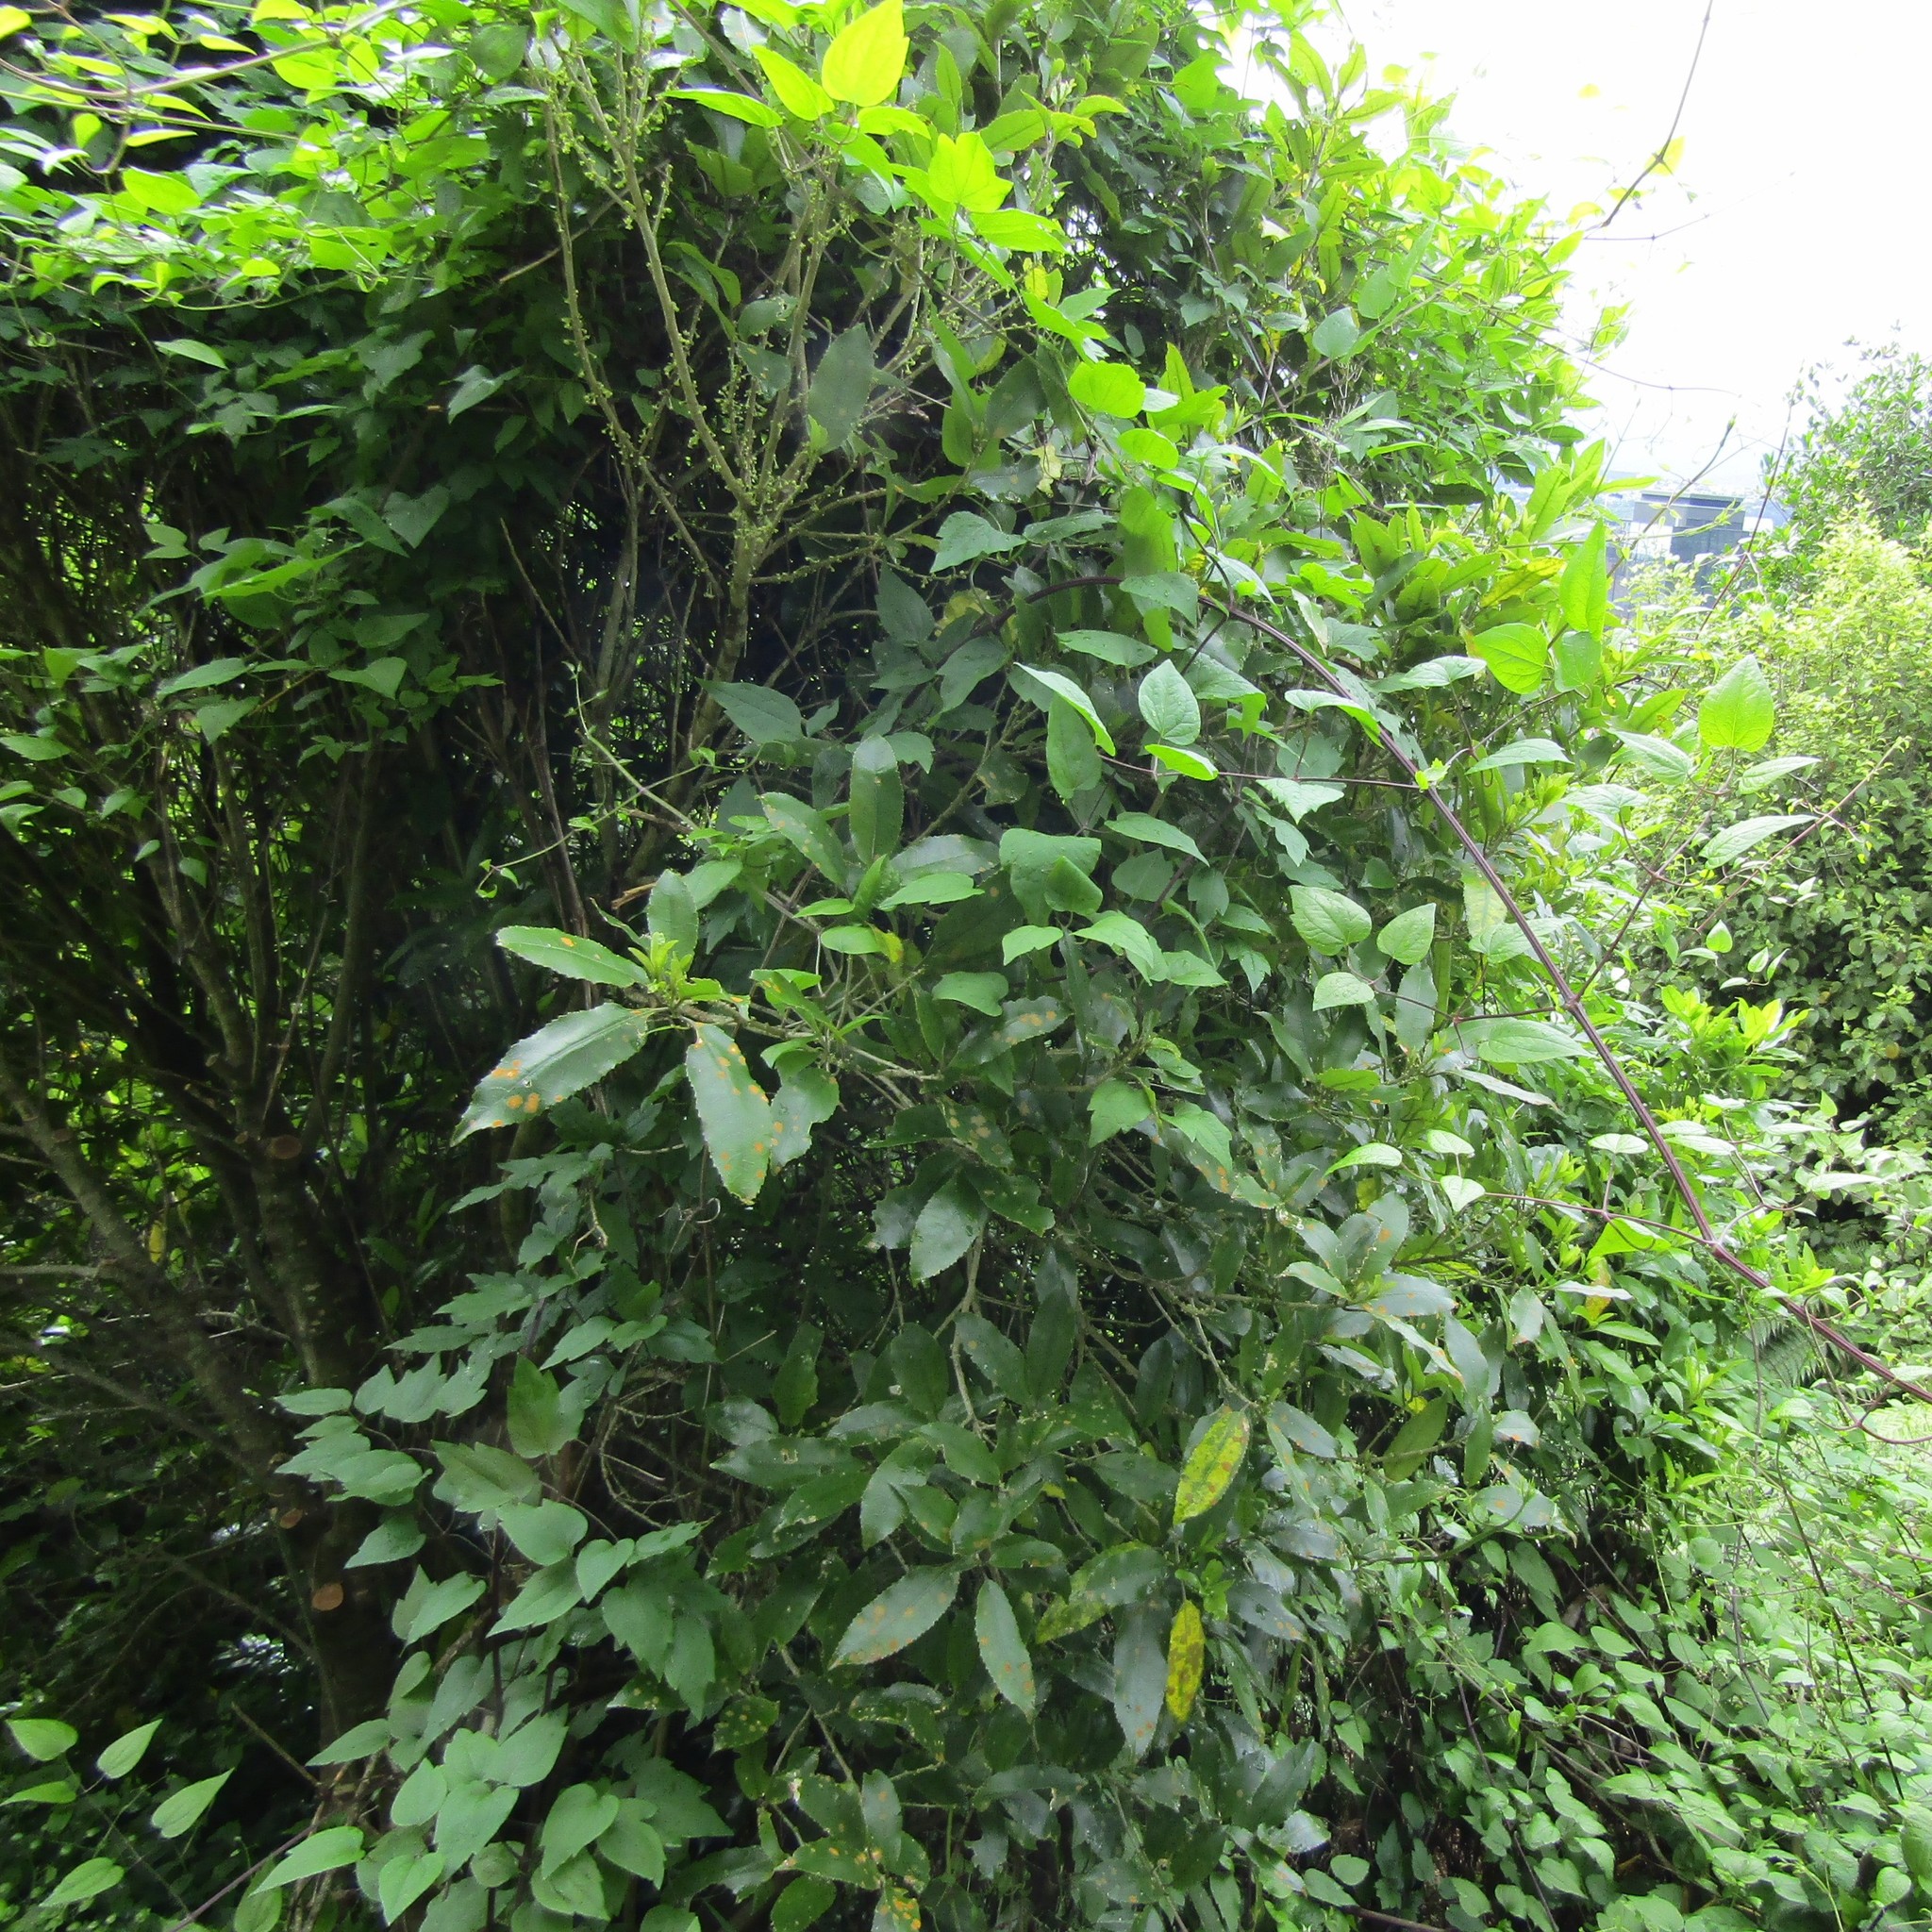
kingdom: Plantae
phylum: Tracheophyta
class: Magnoliopsida
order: Malpighiales
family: Violaceae
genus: Melicytus
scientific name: Melicytus ramiflorus
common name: Mahoe
